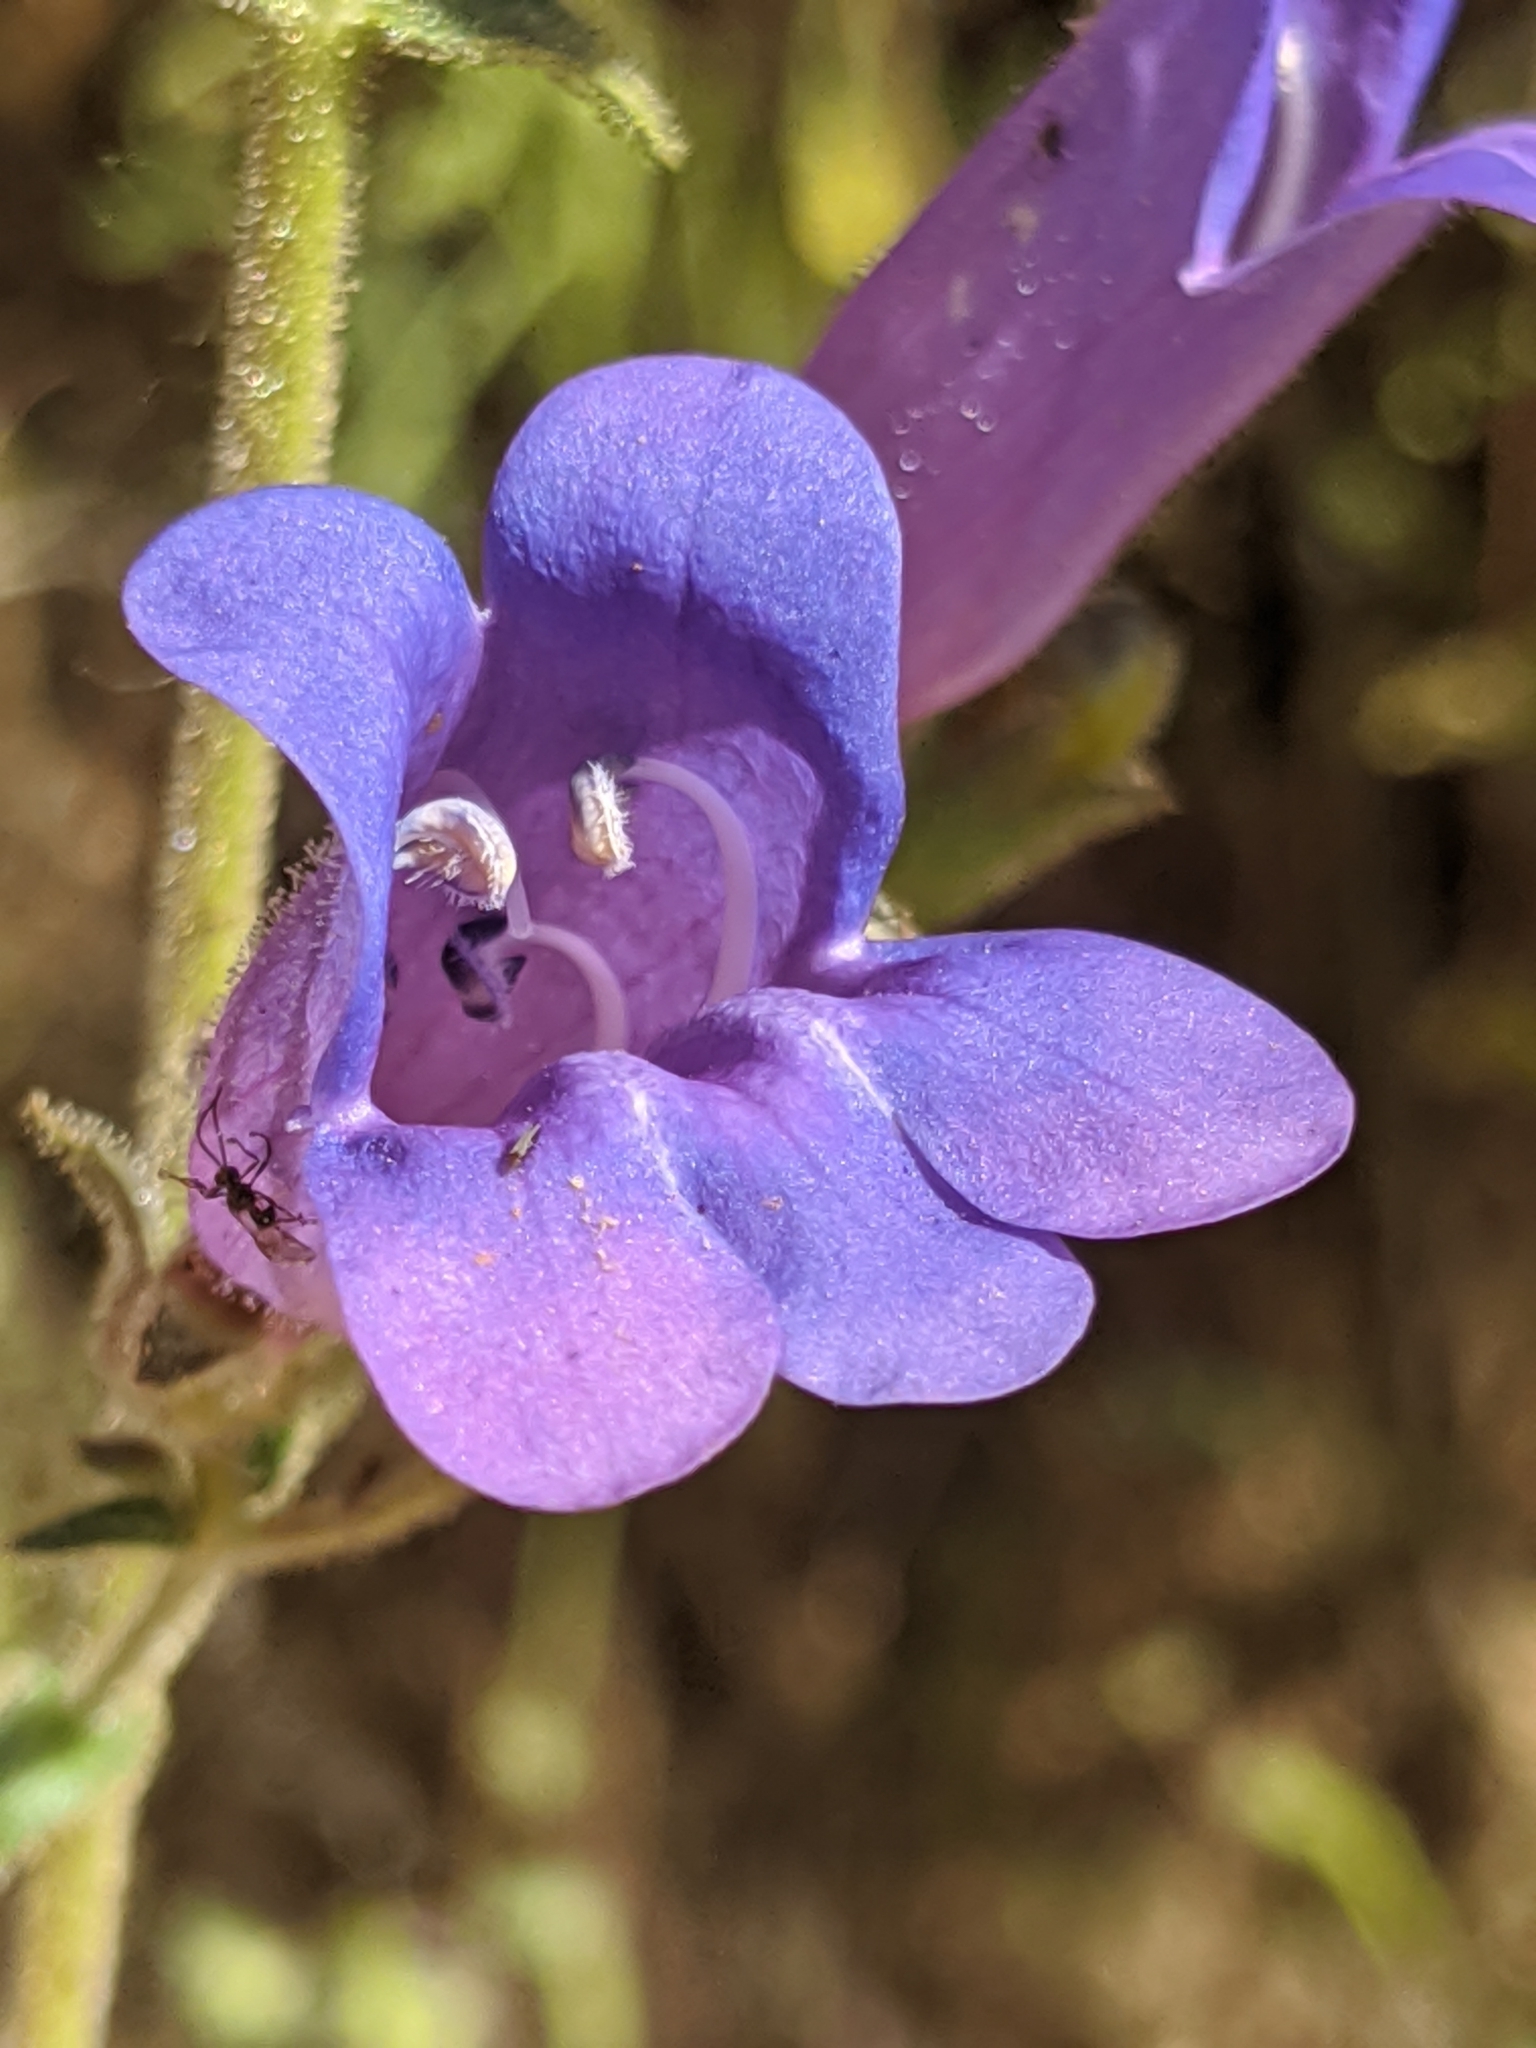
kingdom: Plantae
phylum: Tracheophyta
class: Magnoliopsida
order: Lamiales
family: Plantaginaceae
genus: Penstemon
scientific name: Penstemon laetus
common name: Gay penstemon
